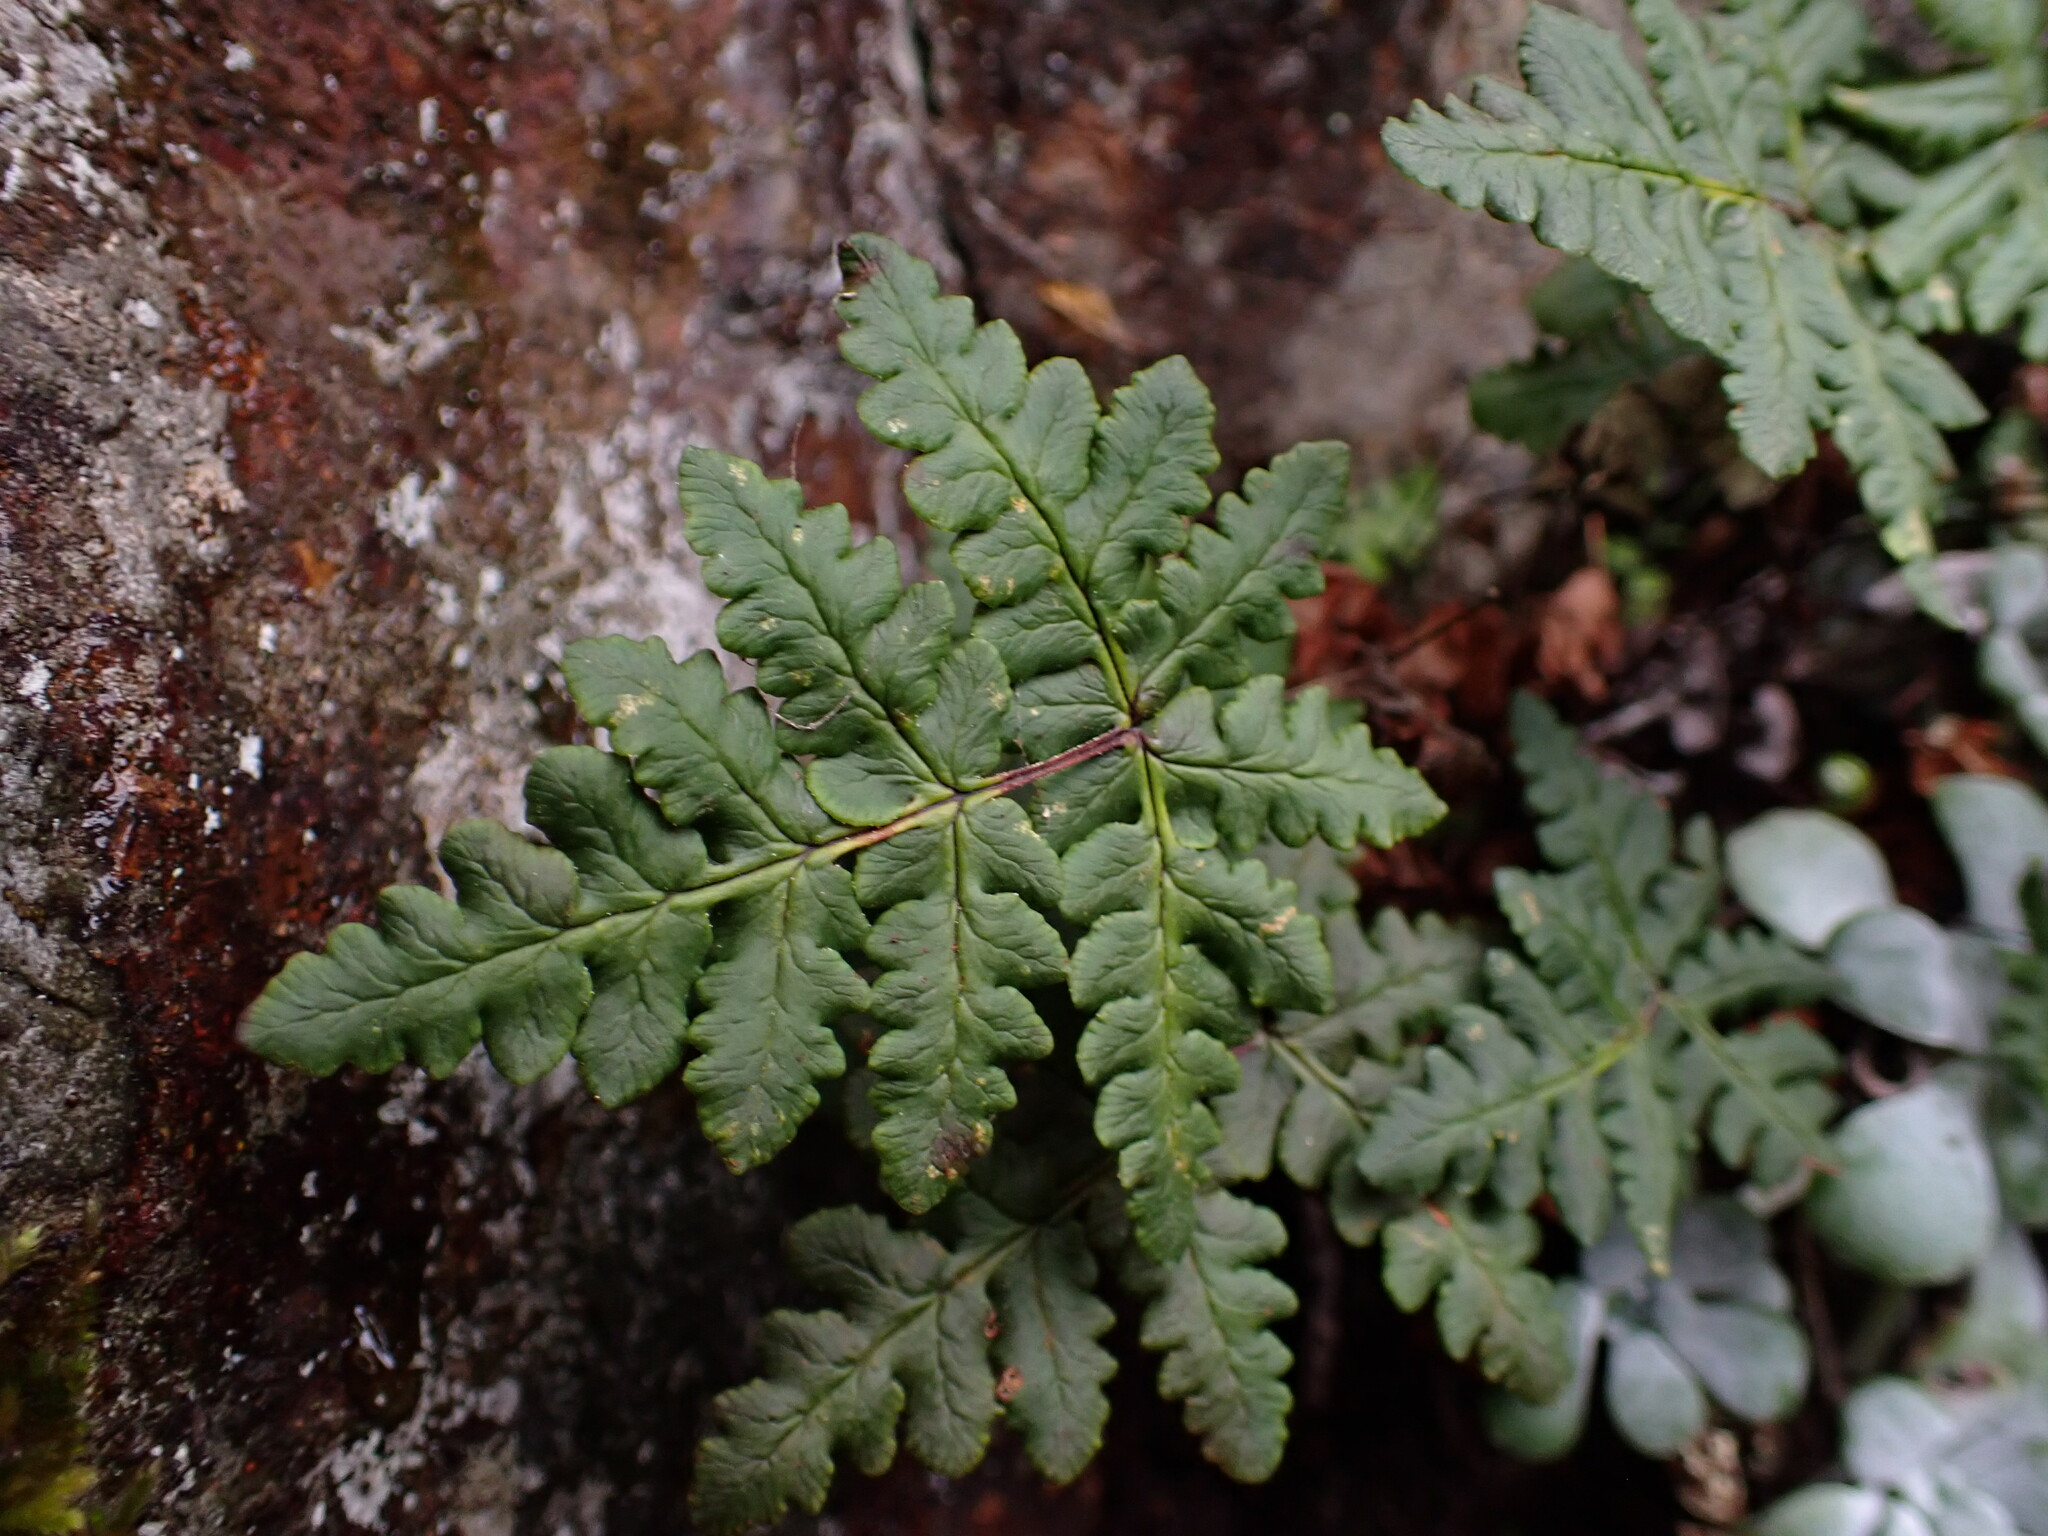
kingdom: Plantae
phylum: Tracheophyta
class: Polypodiopsida
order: Polypodiales
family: Pteridaceae
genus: Pentagramma
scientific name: Pentagramma triangularis
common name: Gold fern
